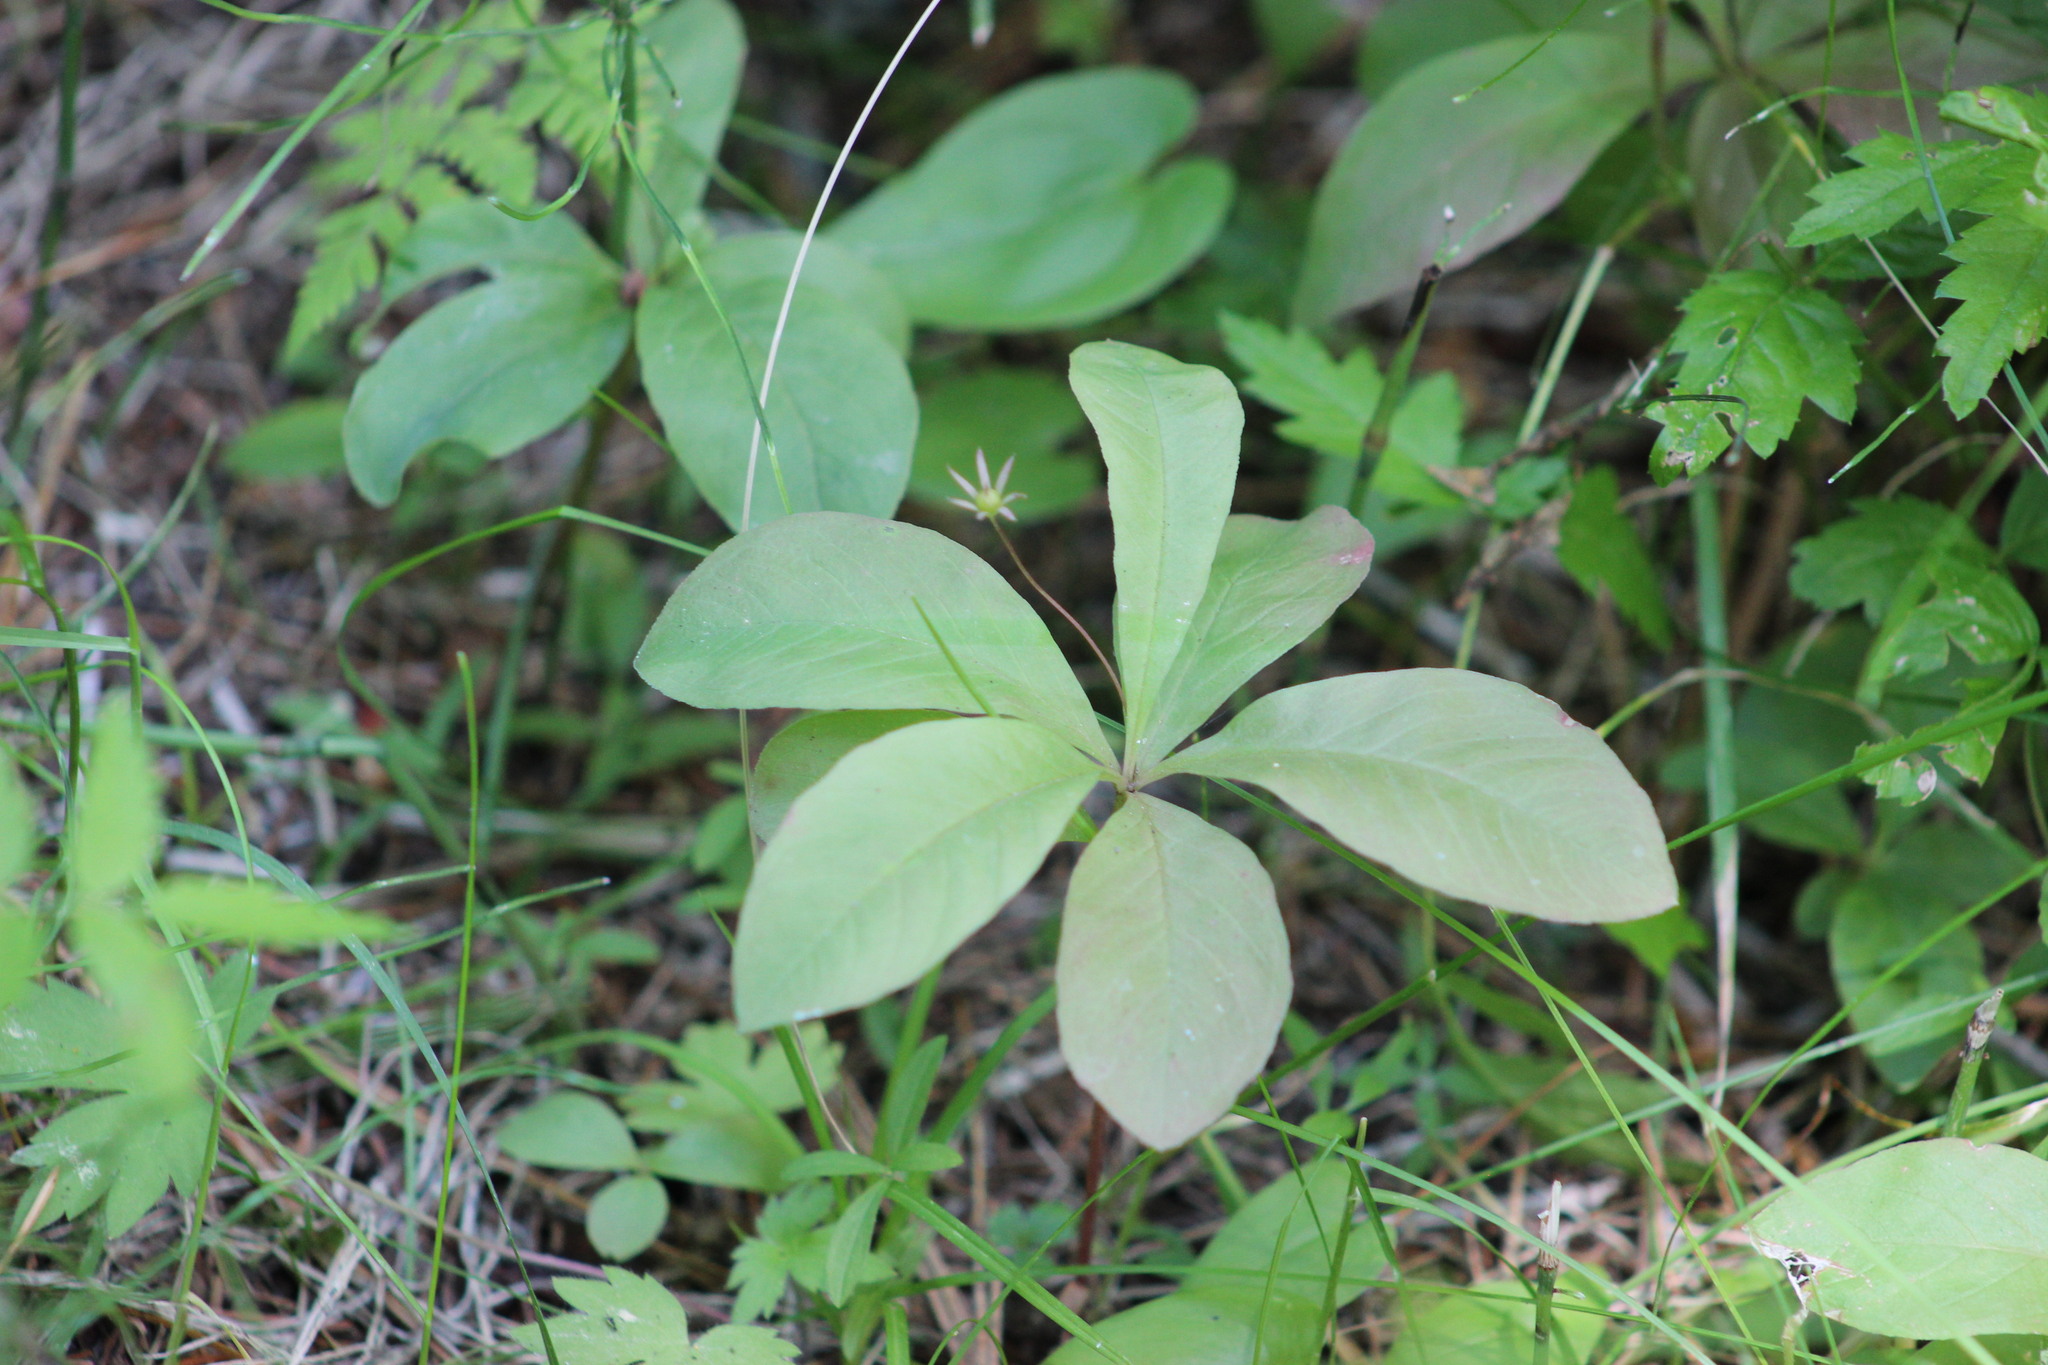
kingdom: Plantae
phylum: Tracheophyta
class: Magnoliopsida
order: Ericales
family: Primulaceae
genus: Lysimachia
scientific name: Lysimachia europaea
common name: Arctic starflower
